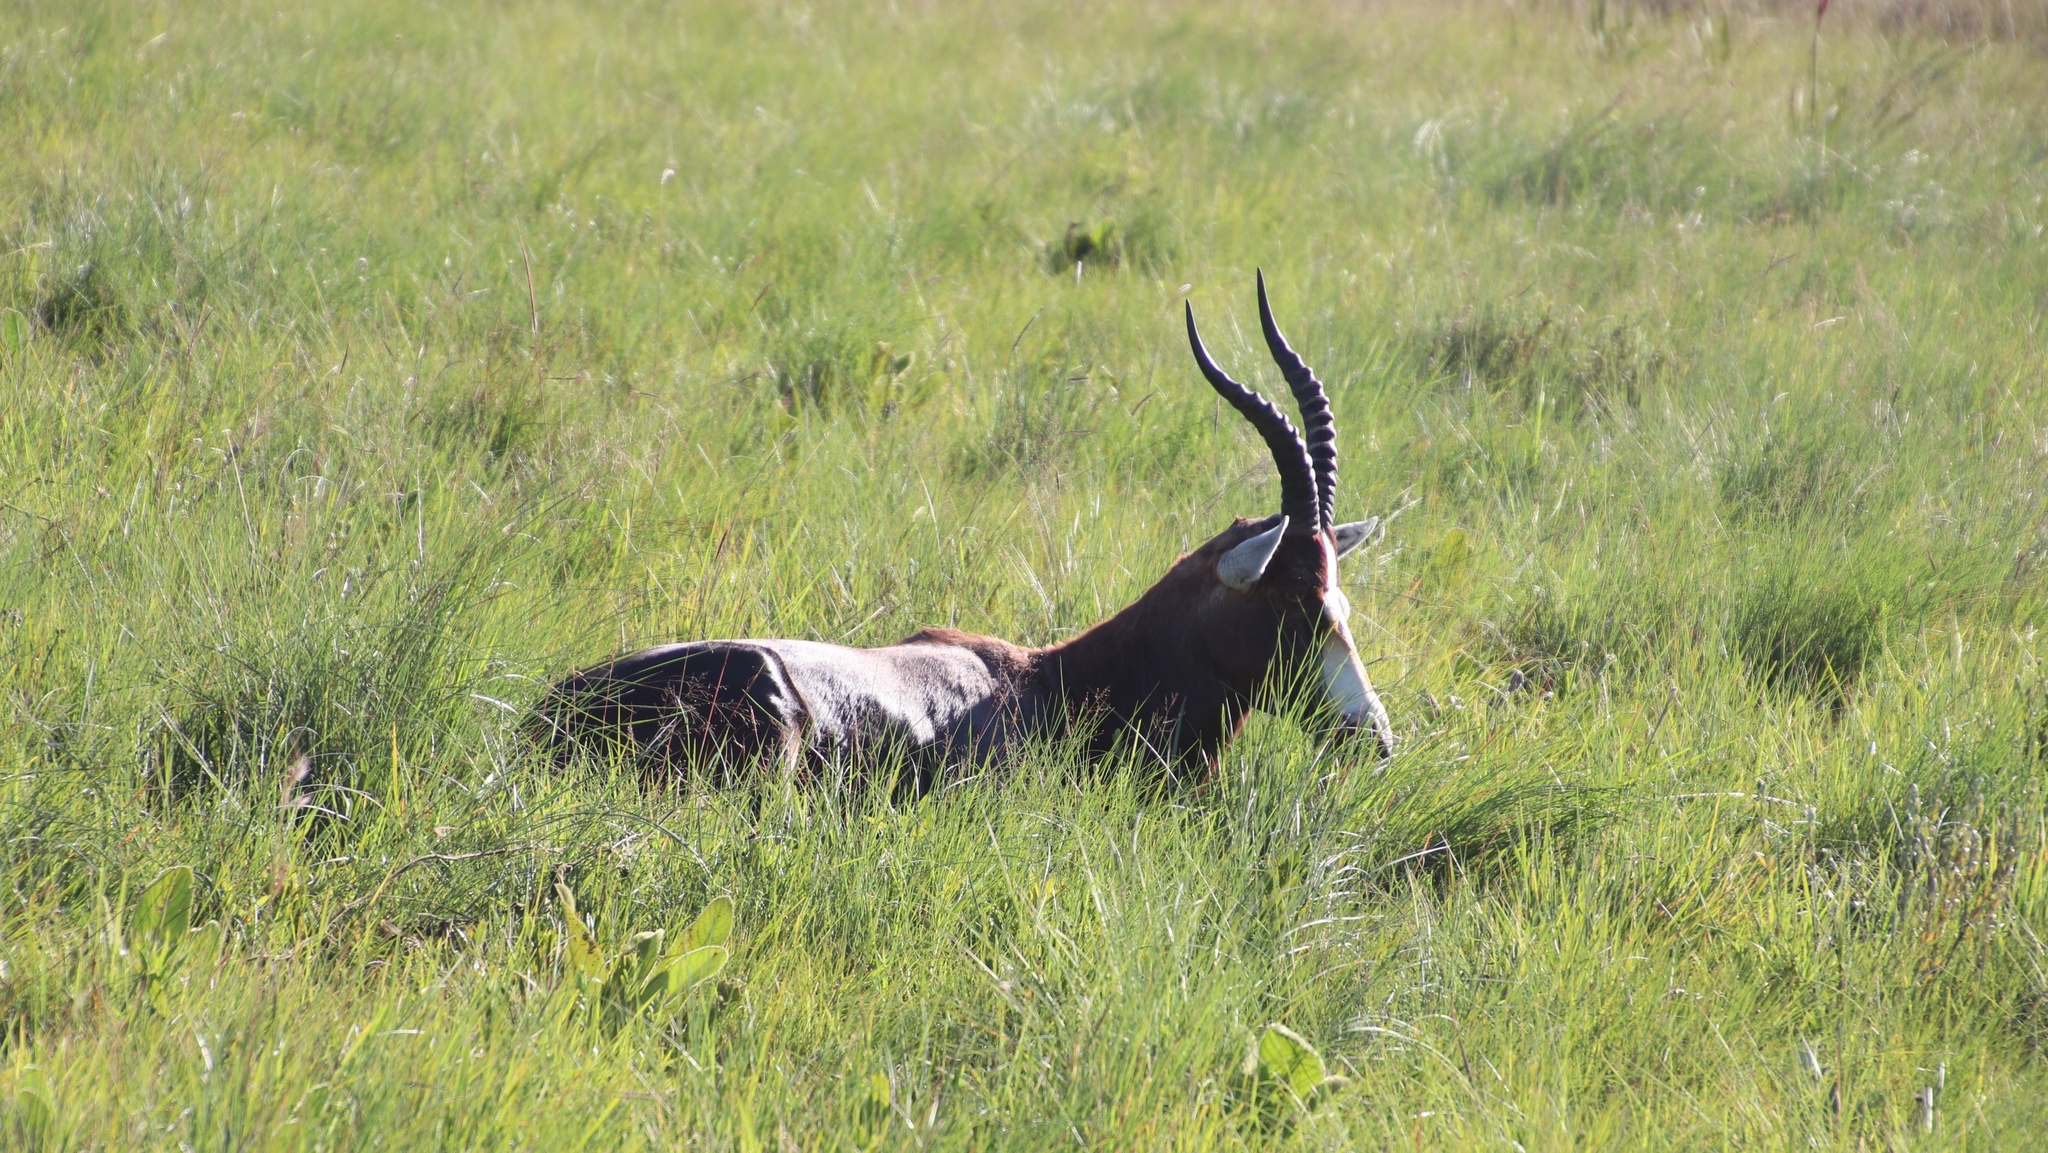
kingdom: Animalia
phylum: Chordata
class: Mammalia
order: Artiodactyla
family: Bovidae
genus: Damaliscus
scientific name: Damaliscus pygargus
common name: Bontebok
